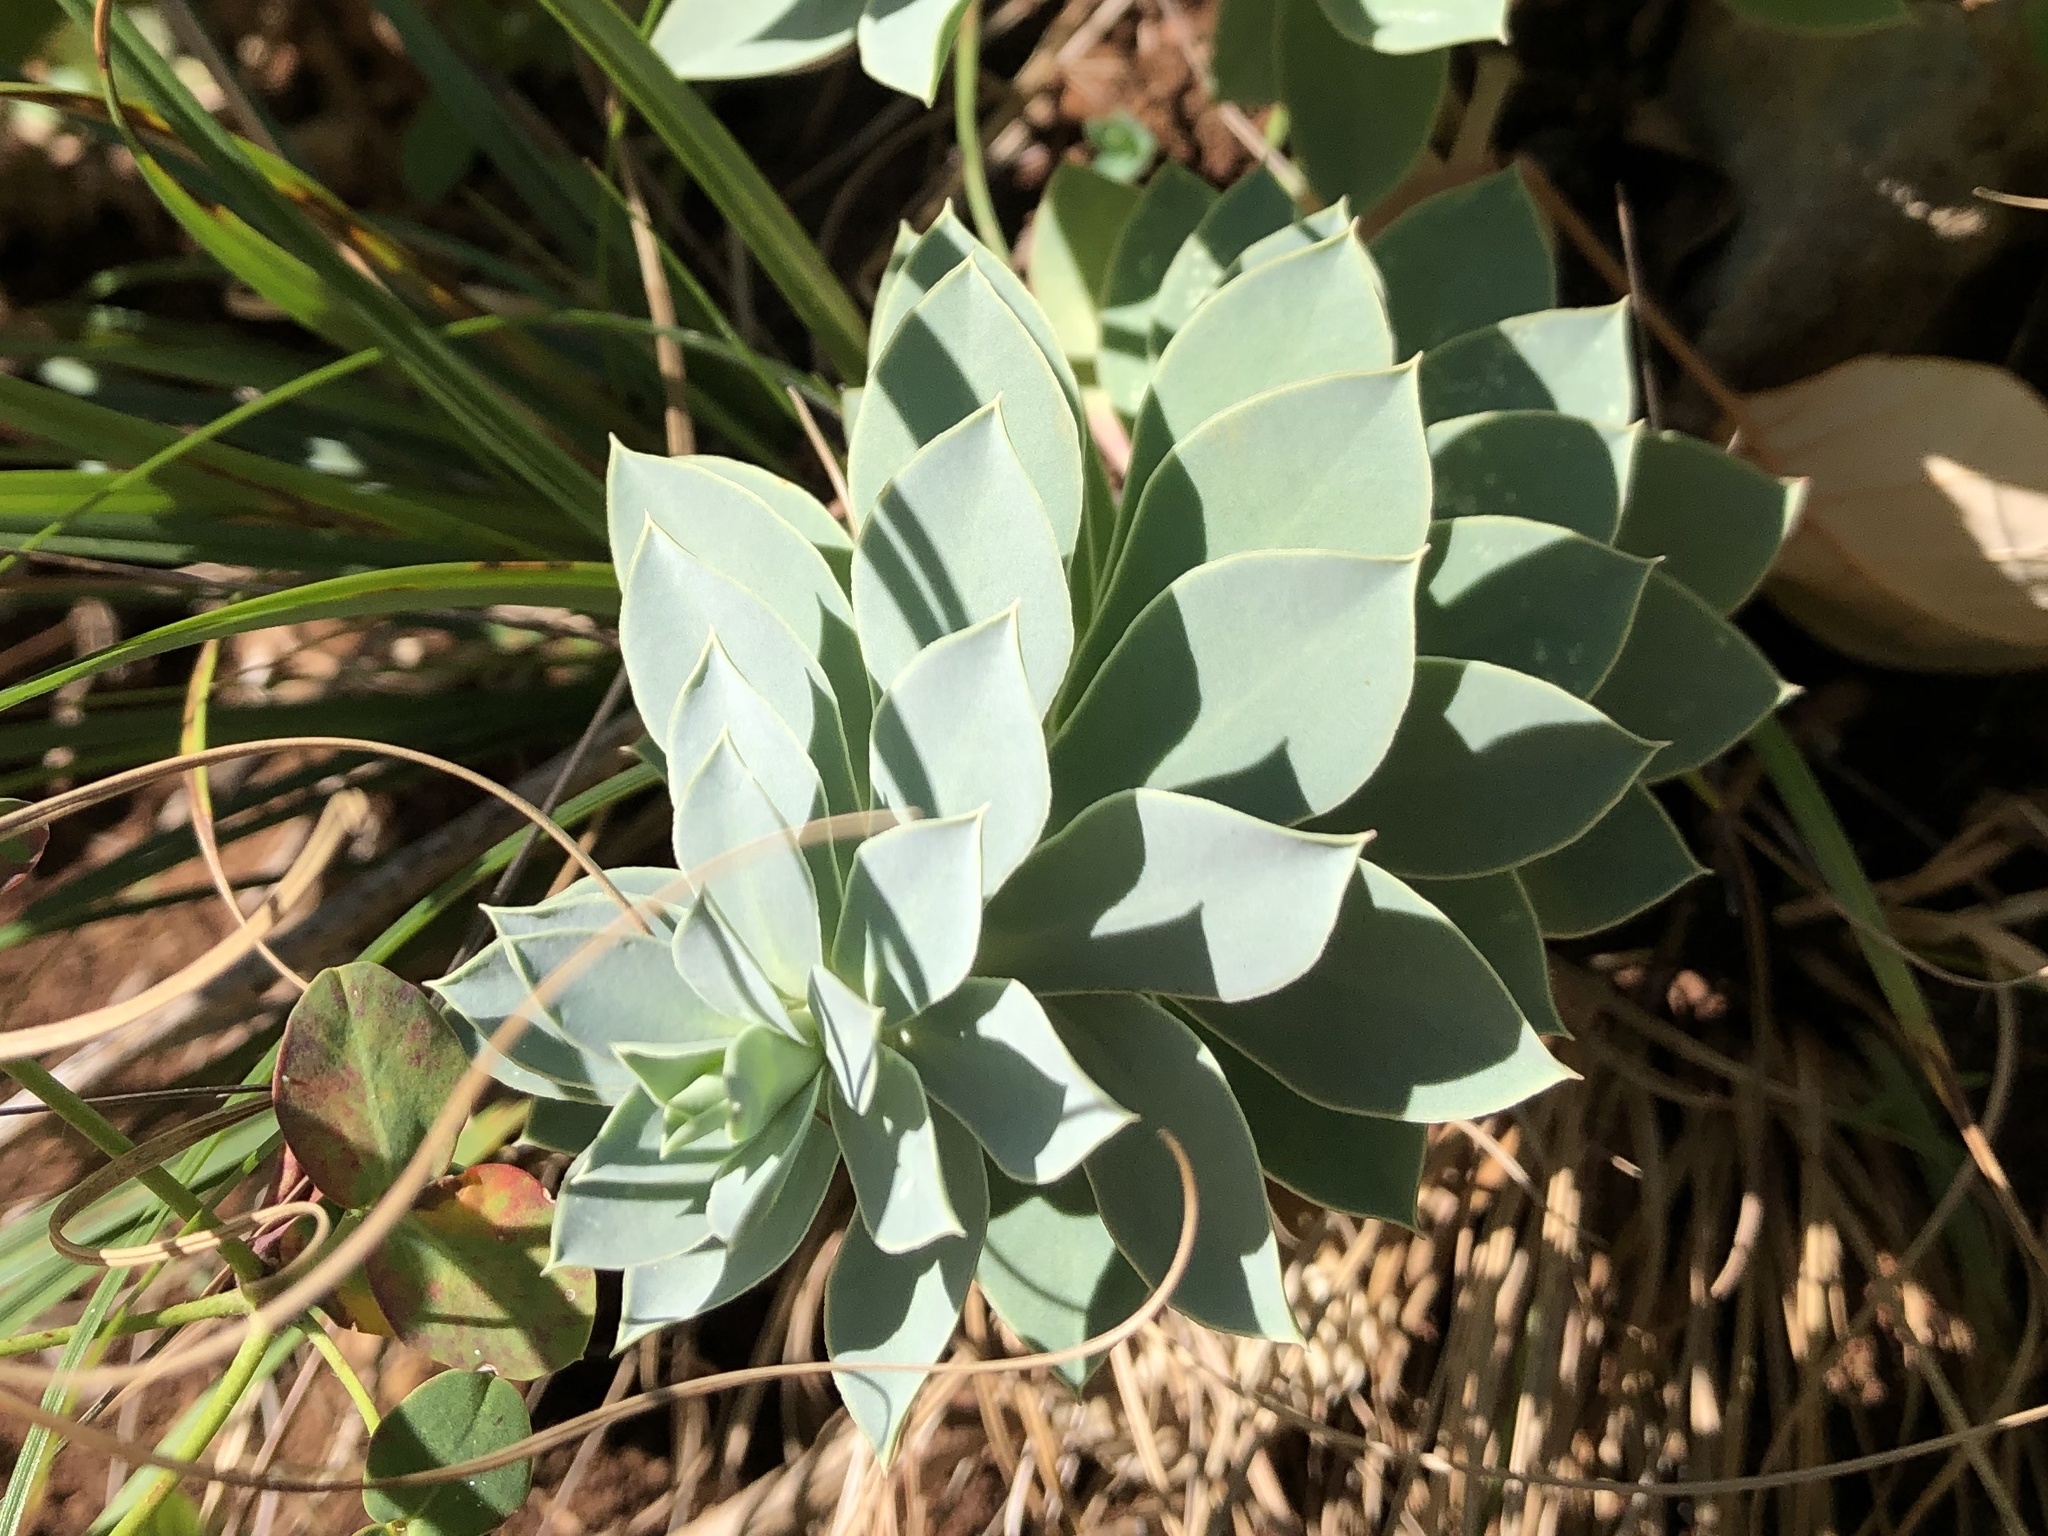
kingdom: Plantae
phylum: Tracheophyta
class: Magnoliopsida
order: Malpighiales
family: Euphorbiaceae
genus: Euphorbia
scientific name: Euphorbia myrsinites
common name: Myrtle spurge
